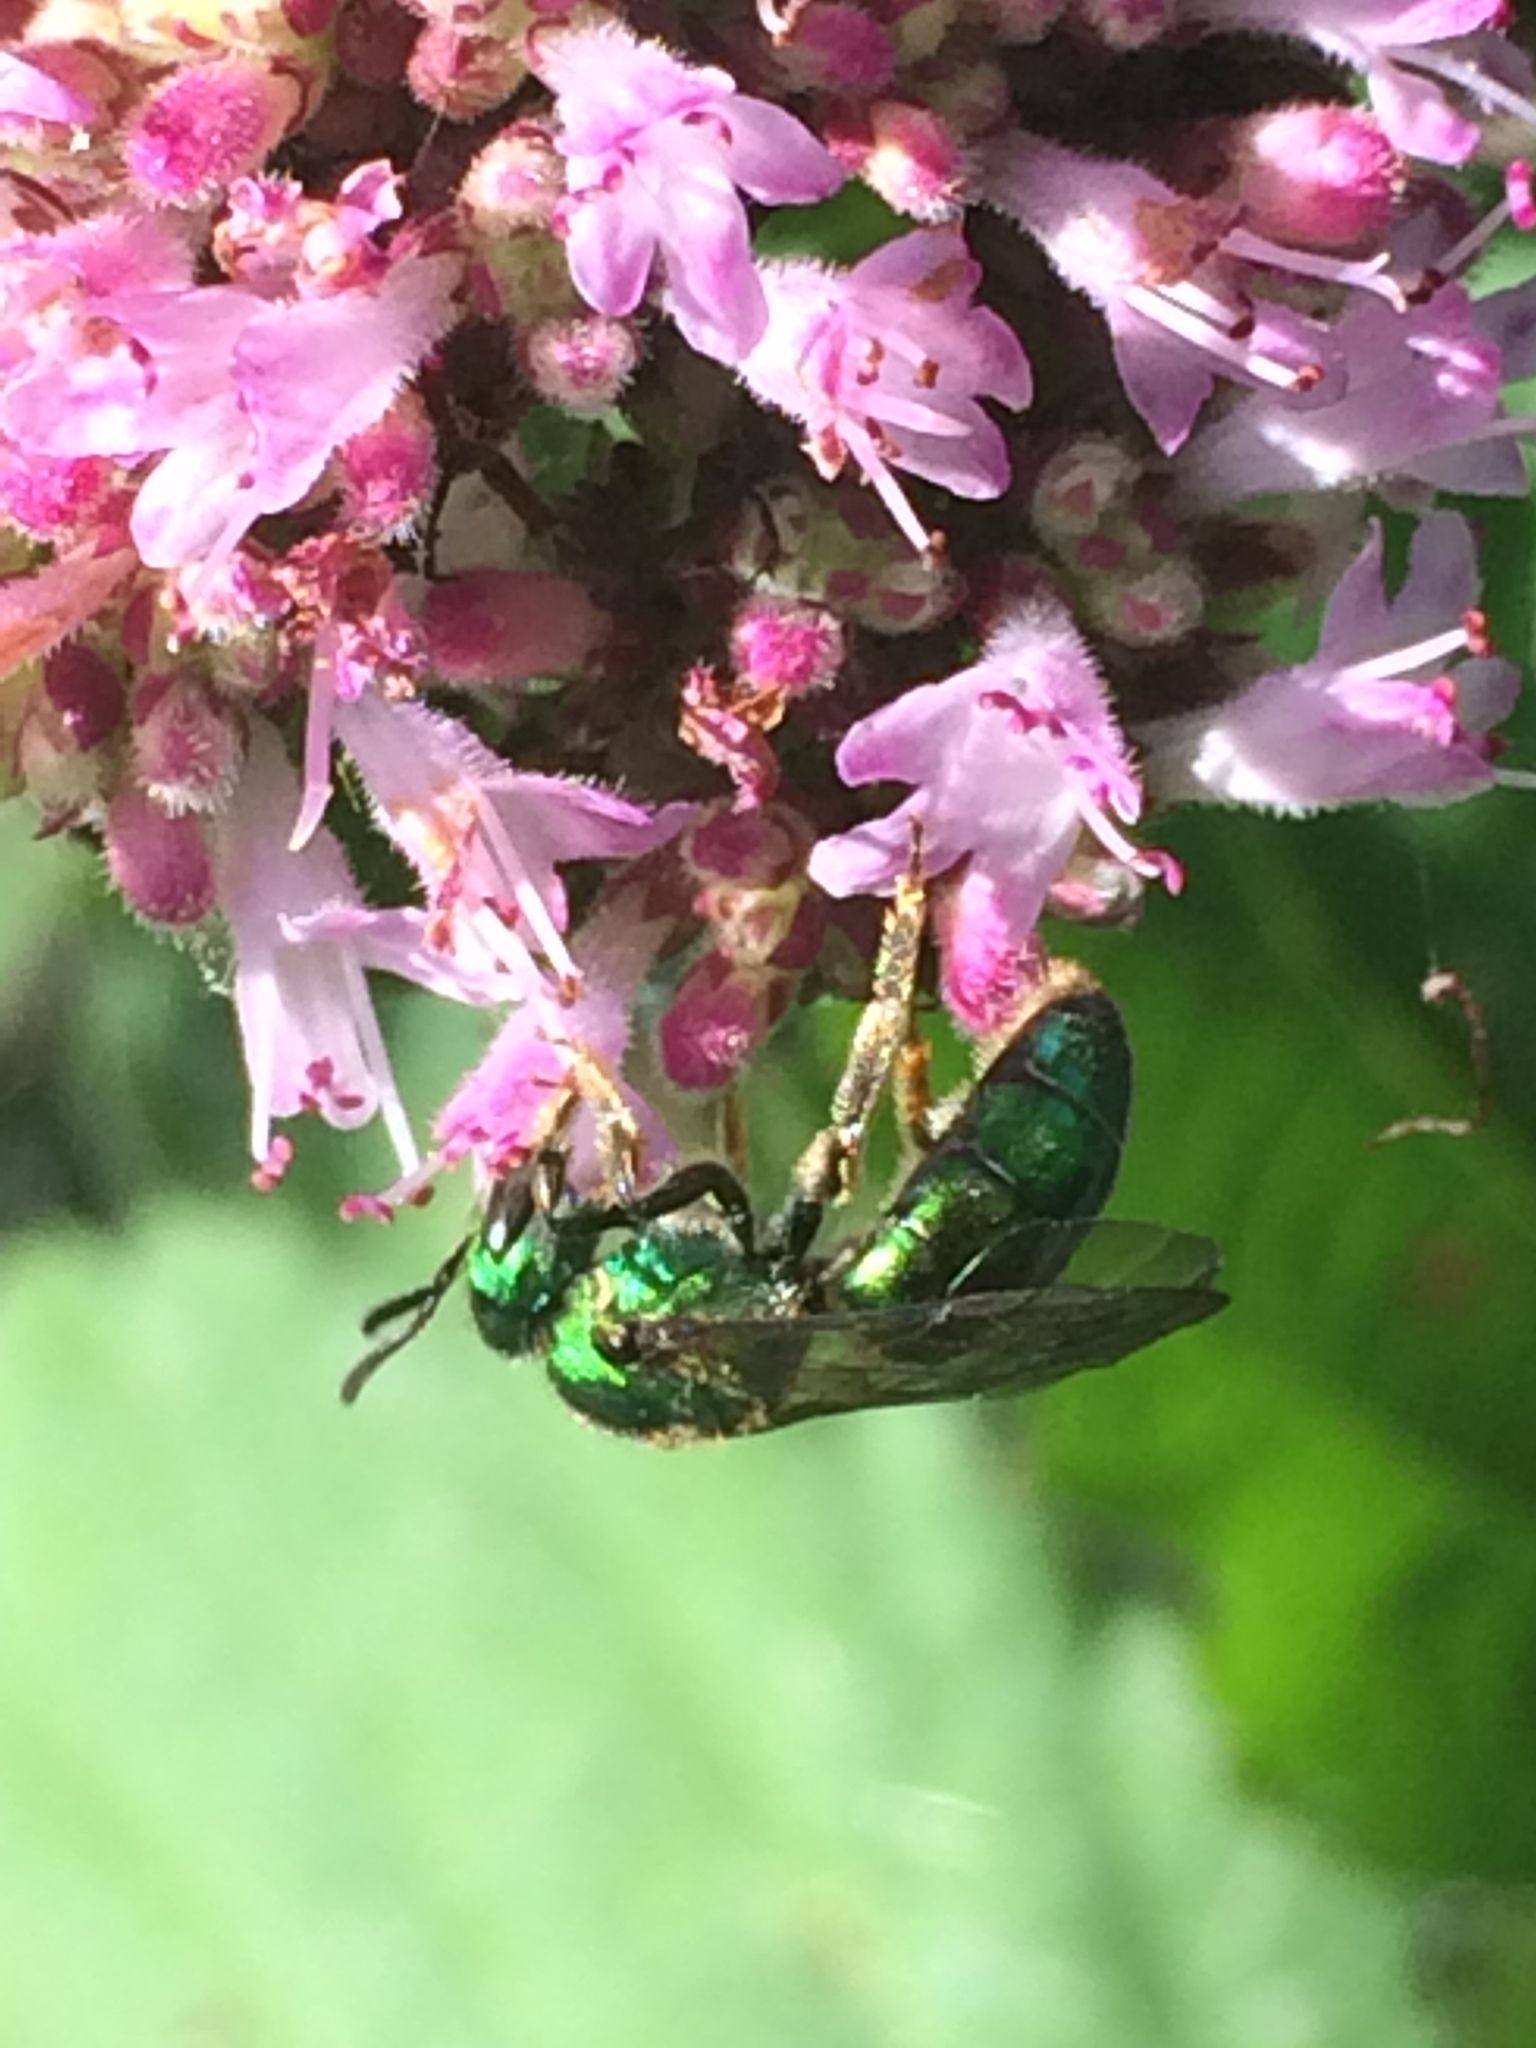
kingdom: Animalia
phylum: Arthropoda
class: Insecta
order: Hymenoptera
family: Halictidae
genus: Augochlora
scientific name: Augochlora pura
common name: Pure green sweat bee
